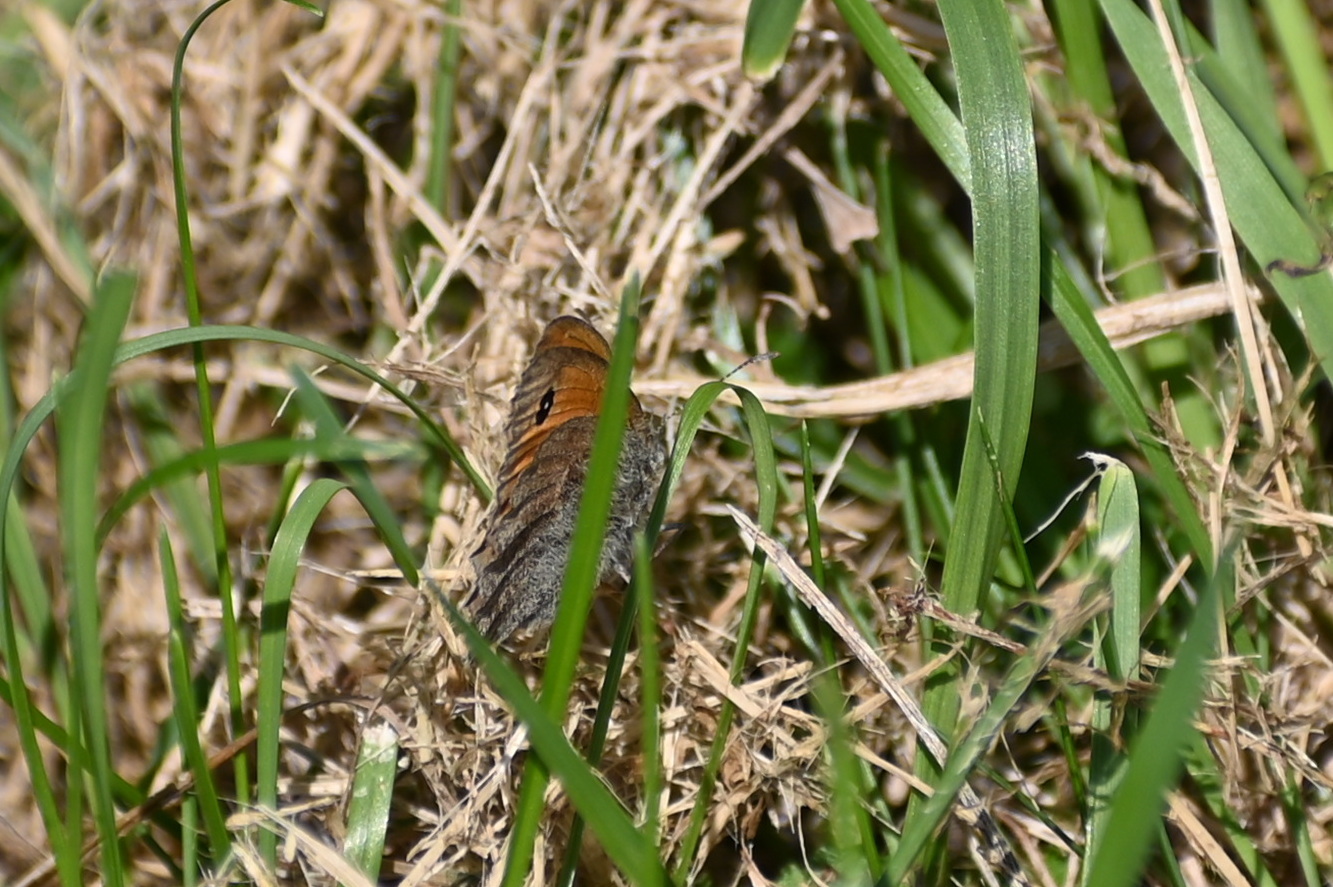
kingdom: Animalia
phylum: Arthropoda
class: Insecta
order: Lepidoptera
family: Nymphalidae
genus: Coenonympha
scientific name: Coenonympha pamphilus
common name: Small heath
